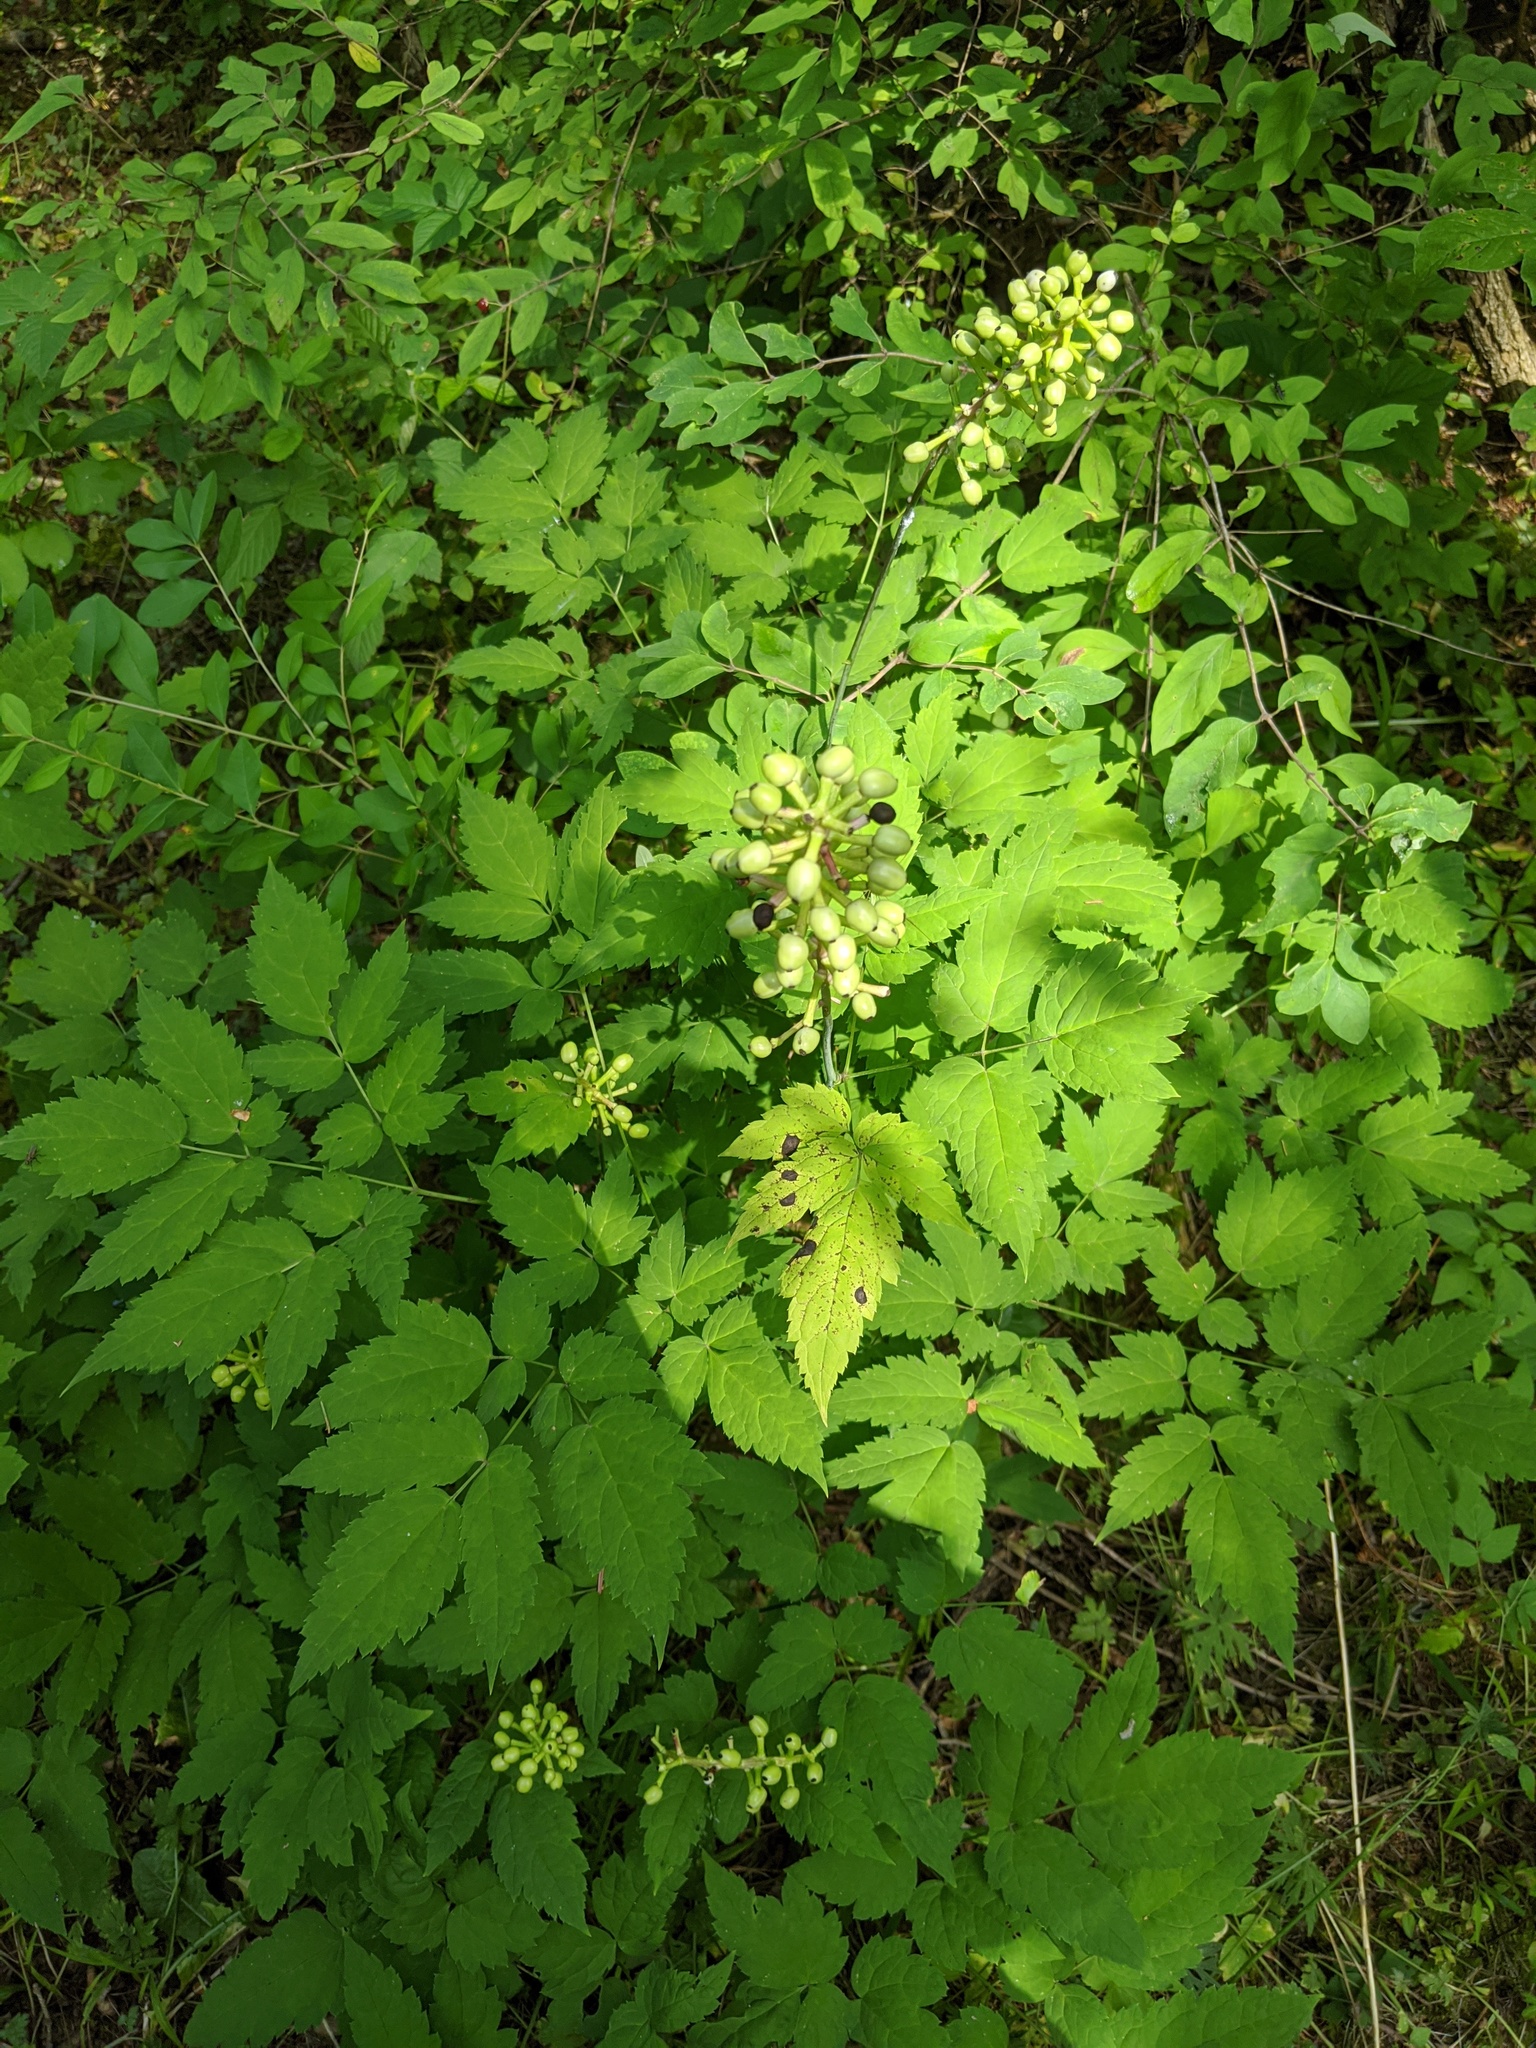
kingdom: Plantae
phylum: Tracheophyta
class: Magnoliopsida
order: Ranunculales
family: Ranunculaceae
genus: Actaea
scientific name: Actaea pachypoda
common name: Doll's-eyes
